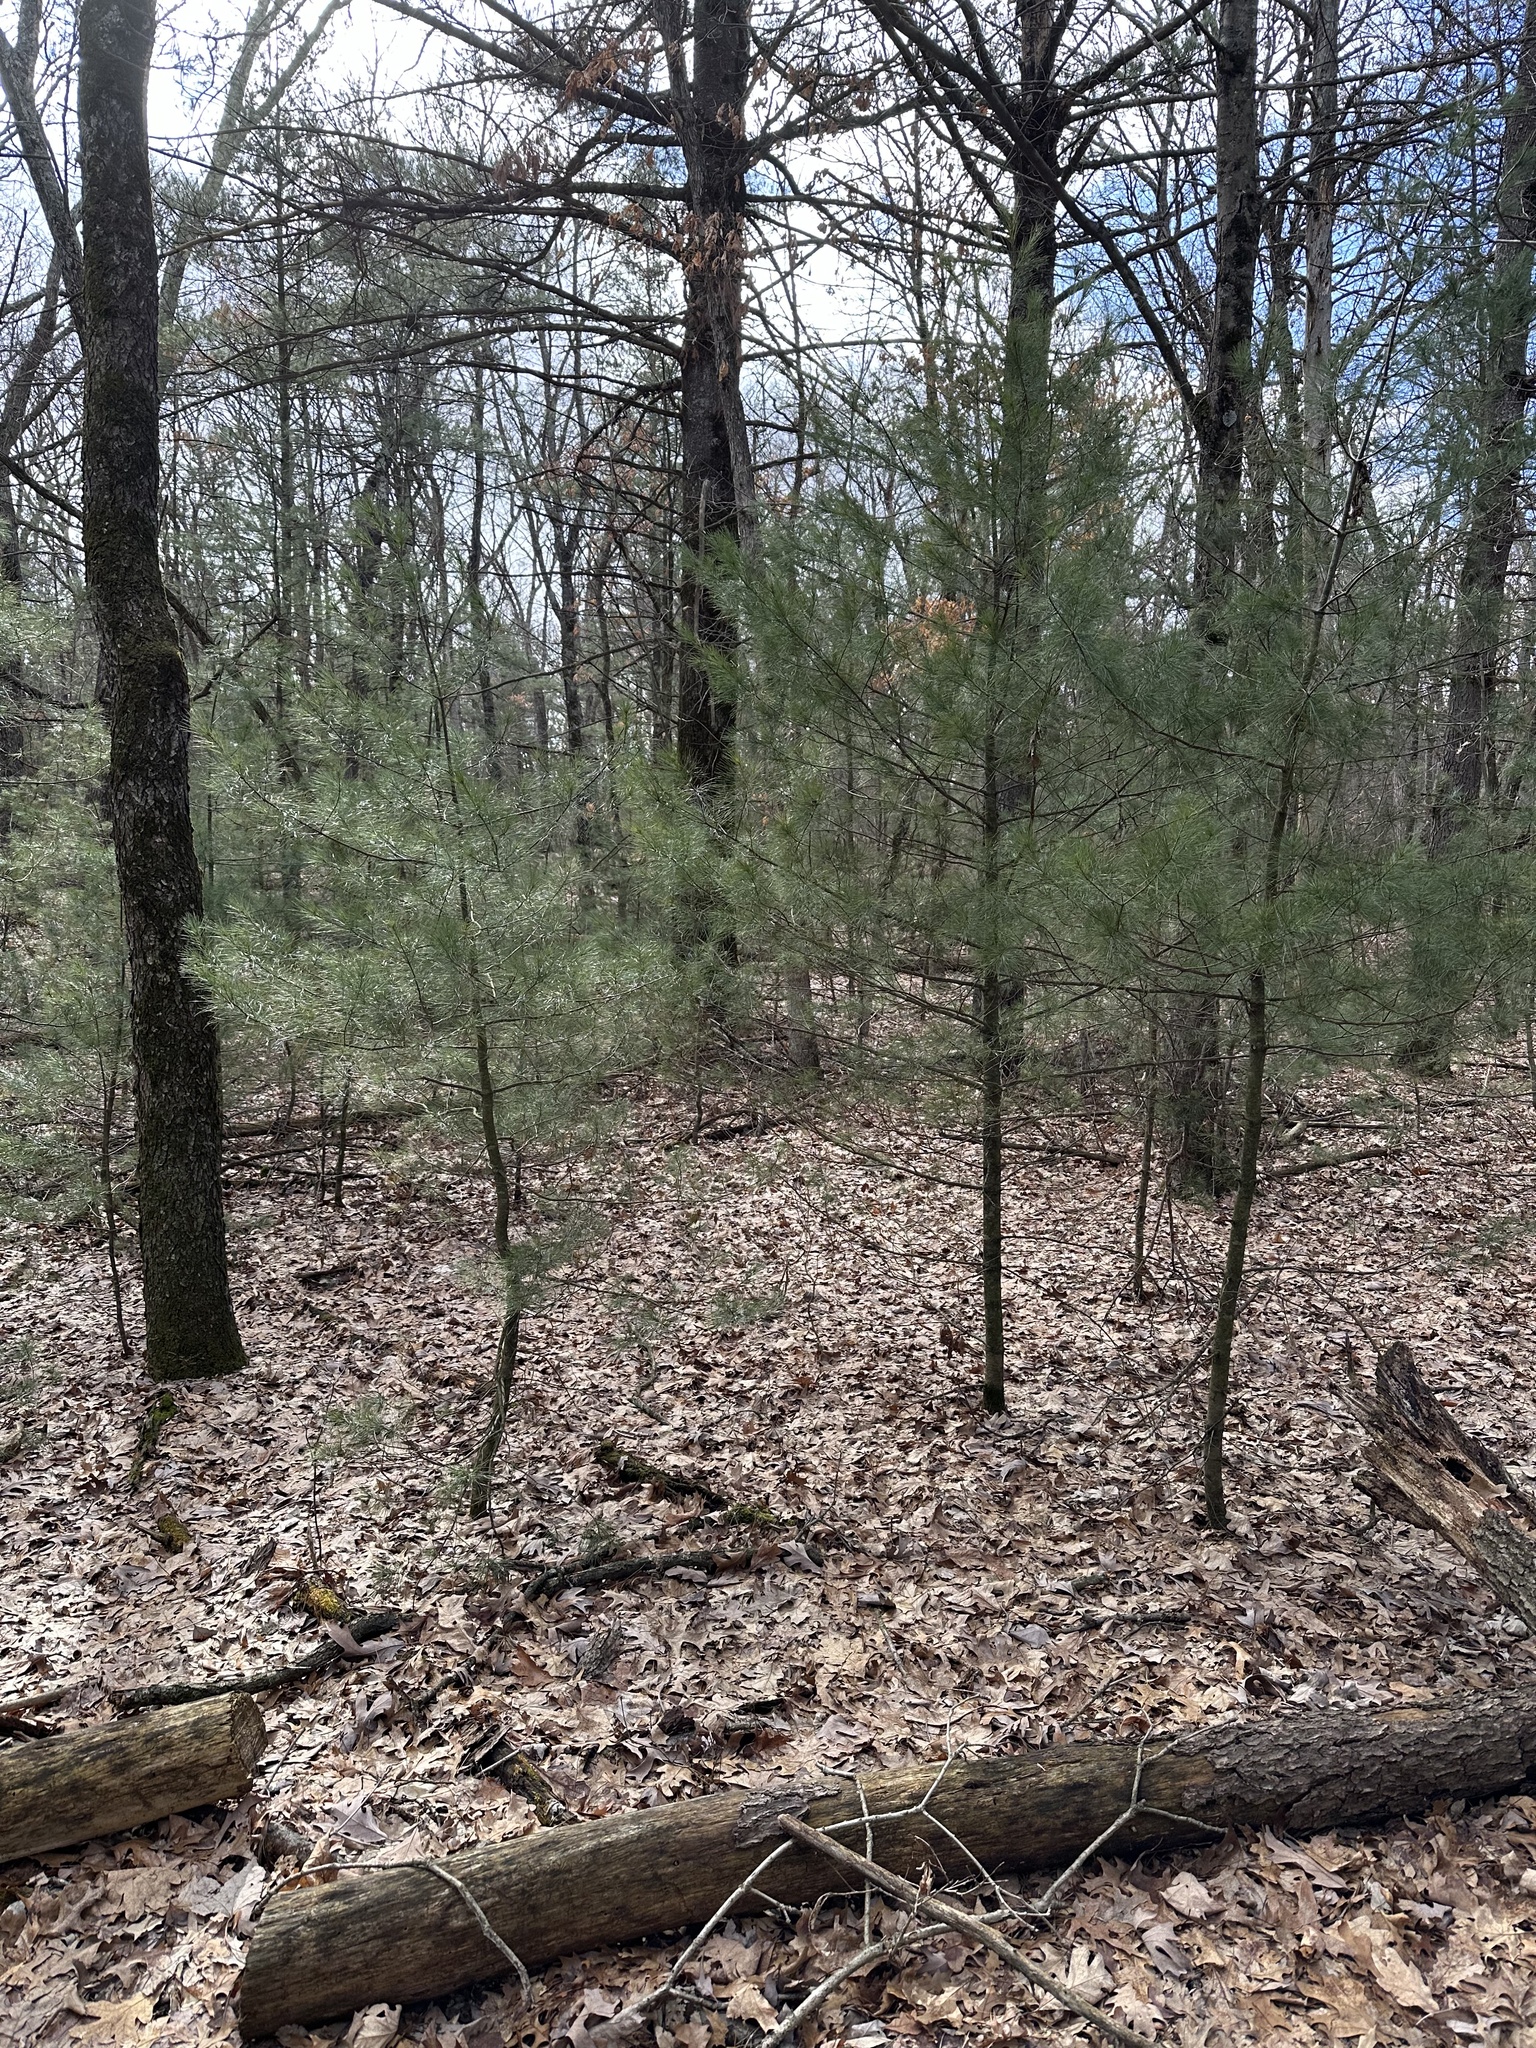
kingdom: Plantae
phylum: Tracheophyta
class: Pinopsida
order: Pinales
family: Pinaceae
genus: Pinus
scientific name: Pinus strobus
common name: Weymouth pine
